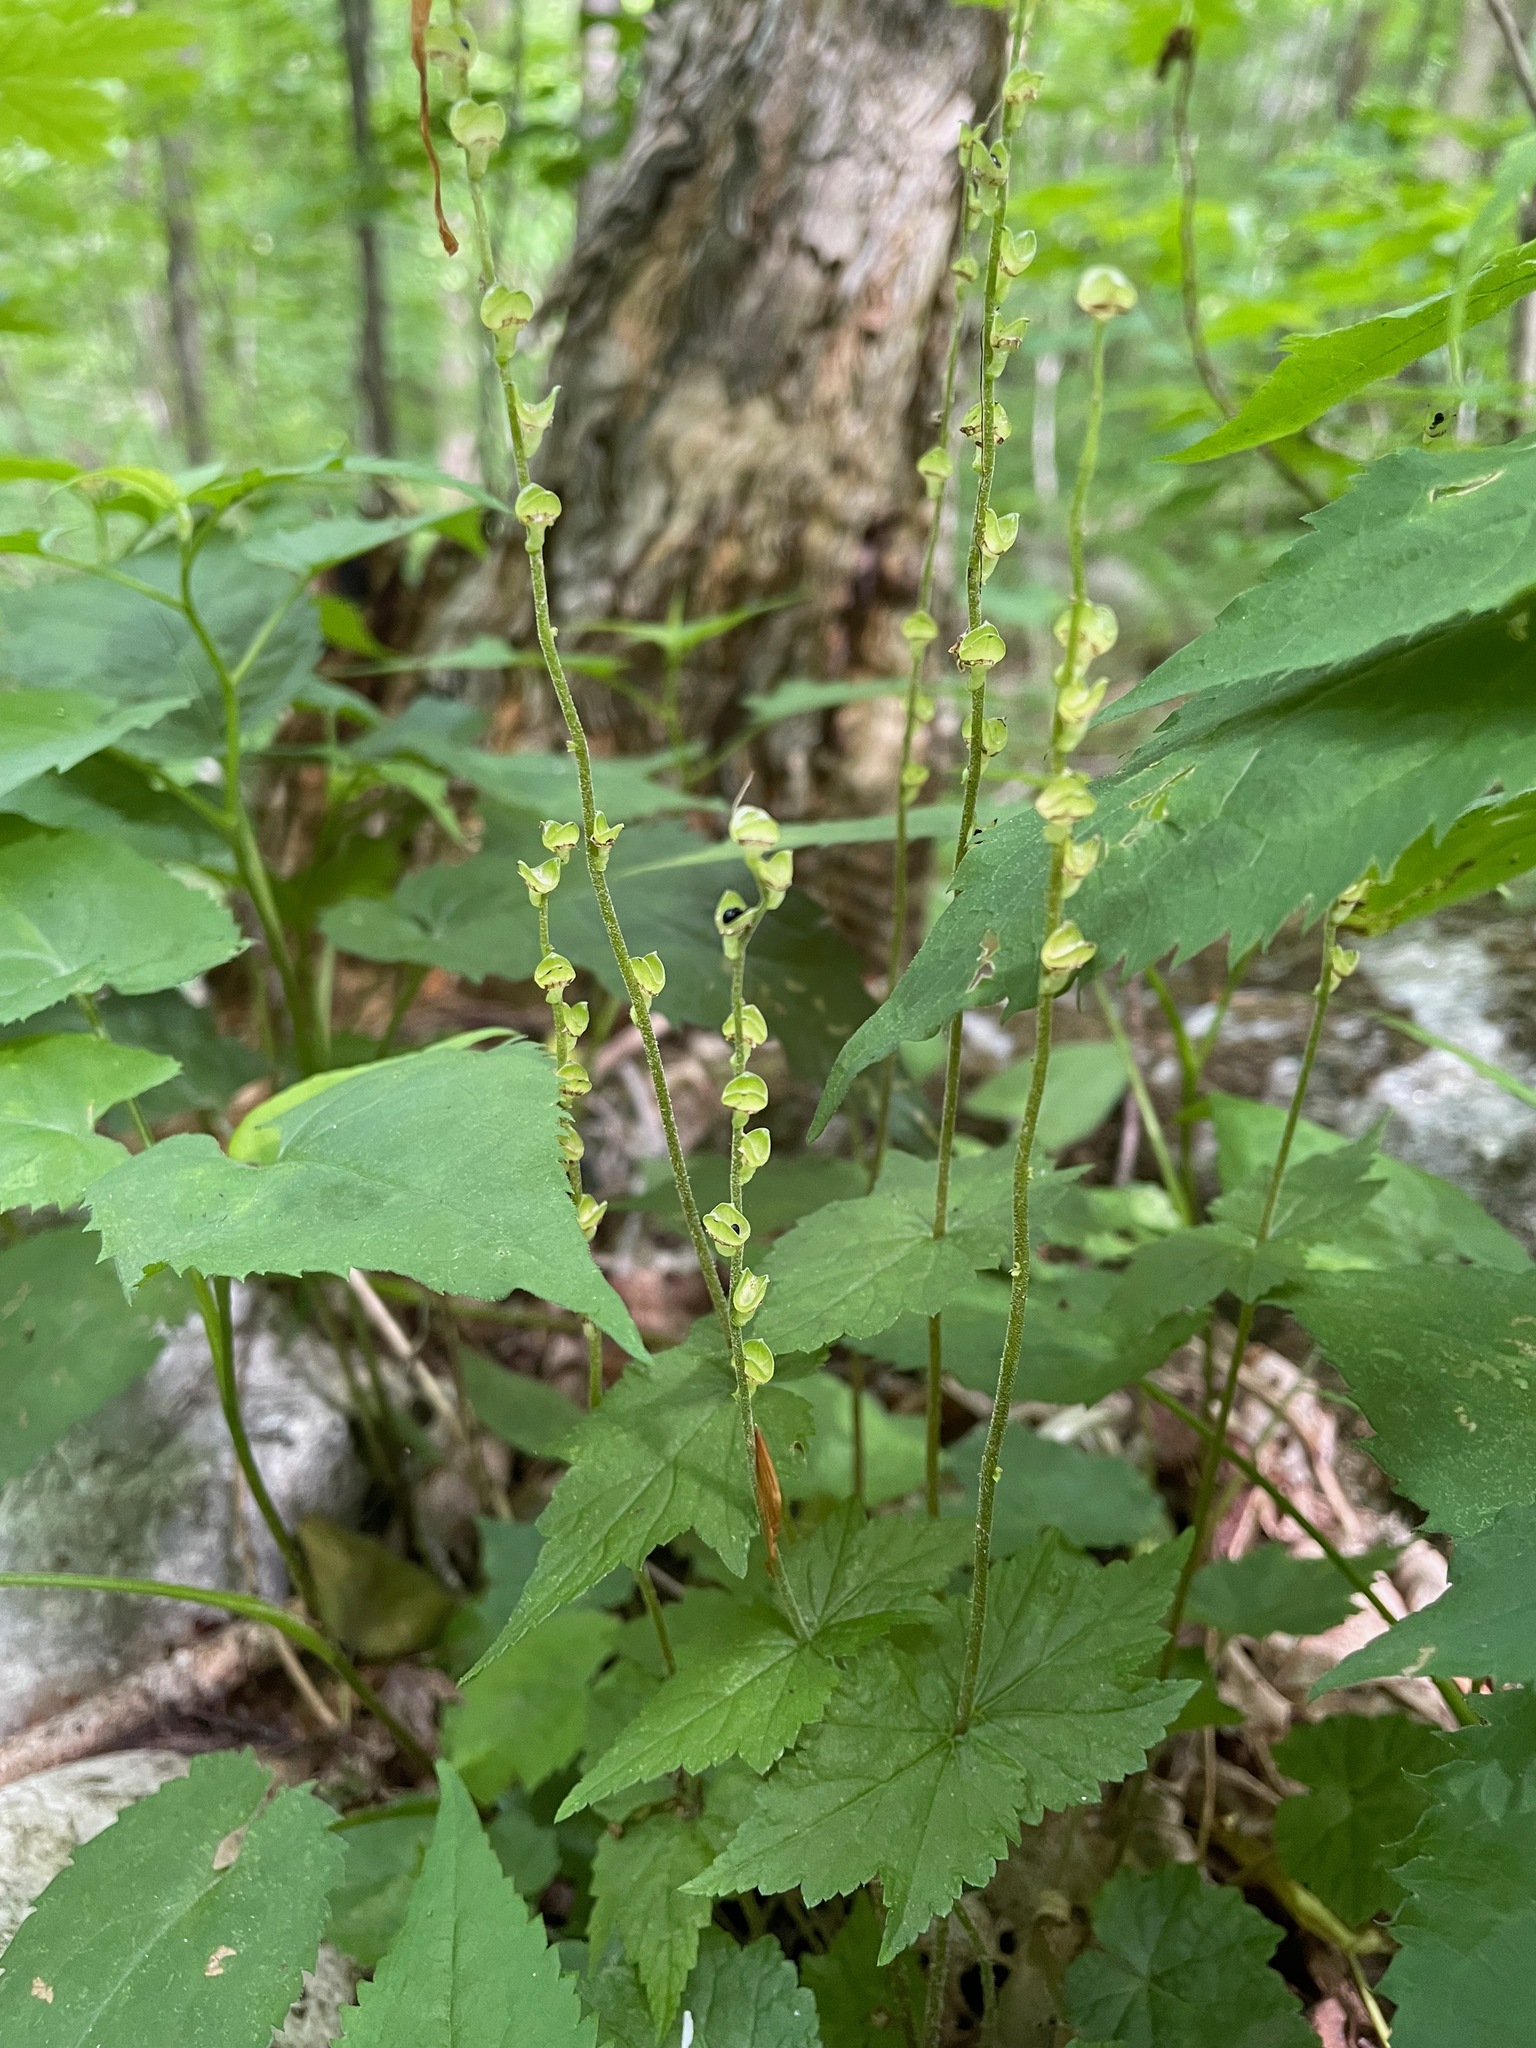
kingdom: Plantae
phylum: Tracheophyta
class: Magnoliopsida
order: Saxifragales
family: Saxifragaceae
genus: Mitella
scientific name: Mitella diphylla
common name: Coolwort
